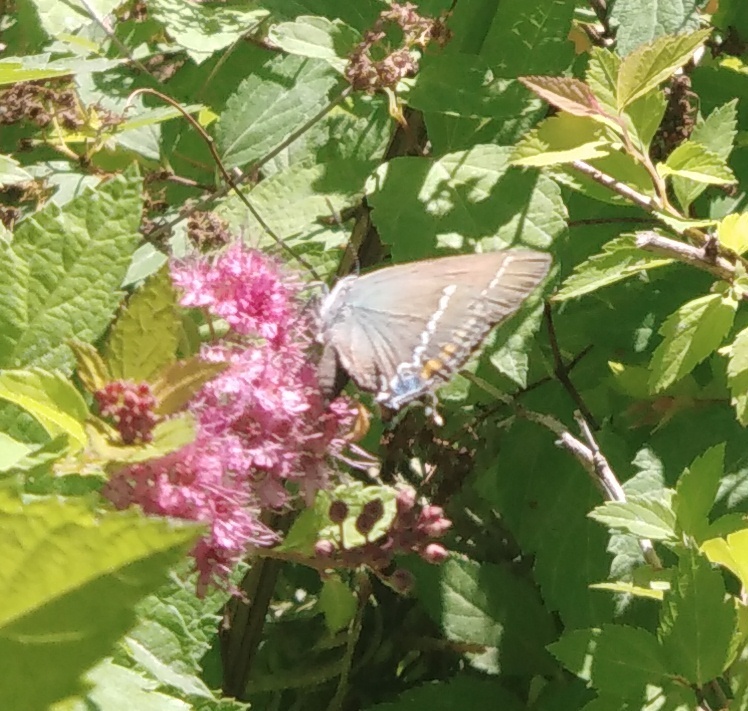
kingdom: Animalia
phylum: Arthropoda
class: Insecta
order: Lepidoptera
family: Lycaenidae
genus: Tuttiola
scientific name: Tuttiola spini
